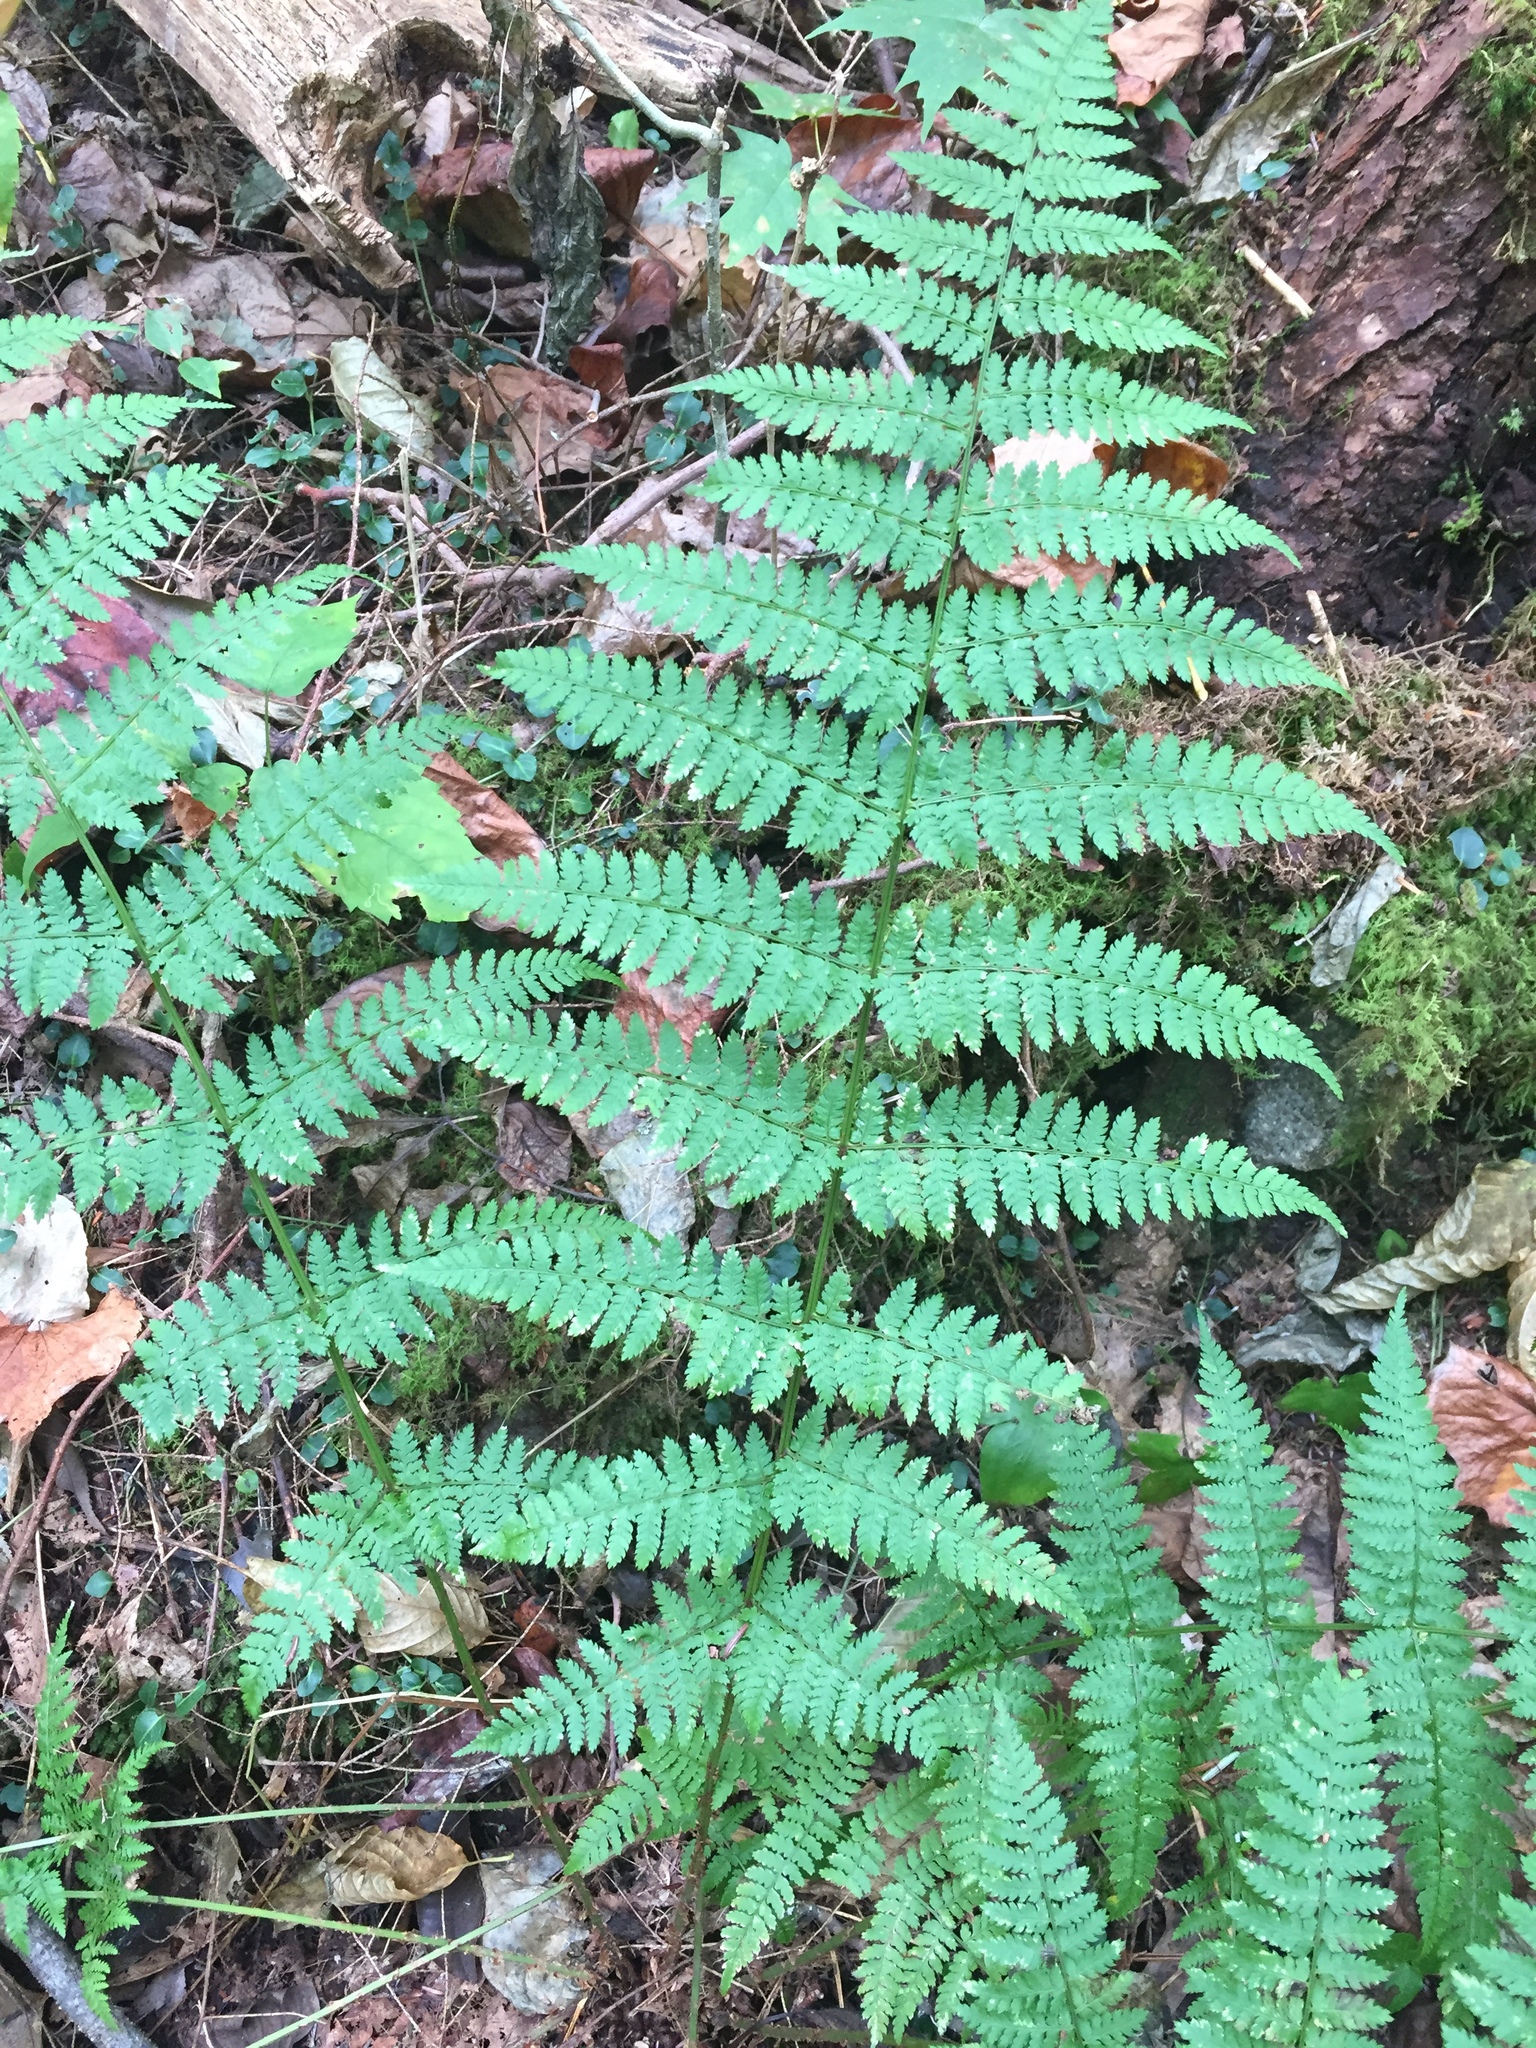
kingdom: Plantae
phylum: Tracheophyta
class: Polypodiopsida
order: Polypodiales
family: Dryopteridaceae
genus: Dryopteris
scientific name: Dryopteris intermedia
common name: Evergreen wood fern
